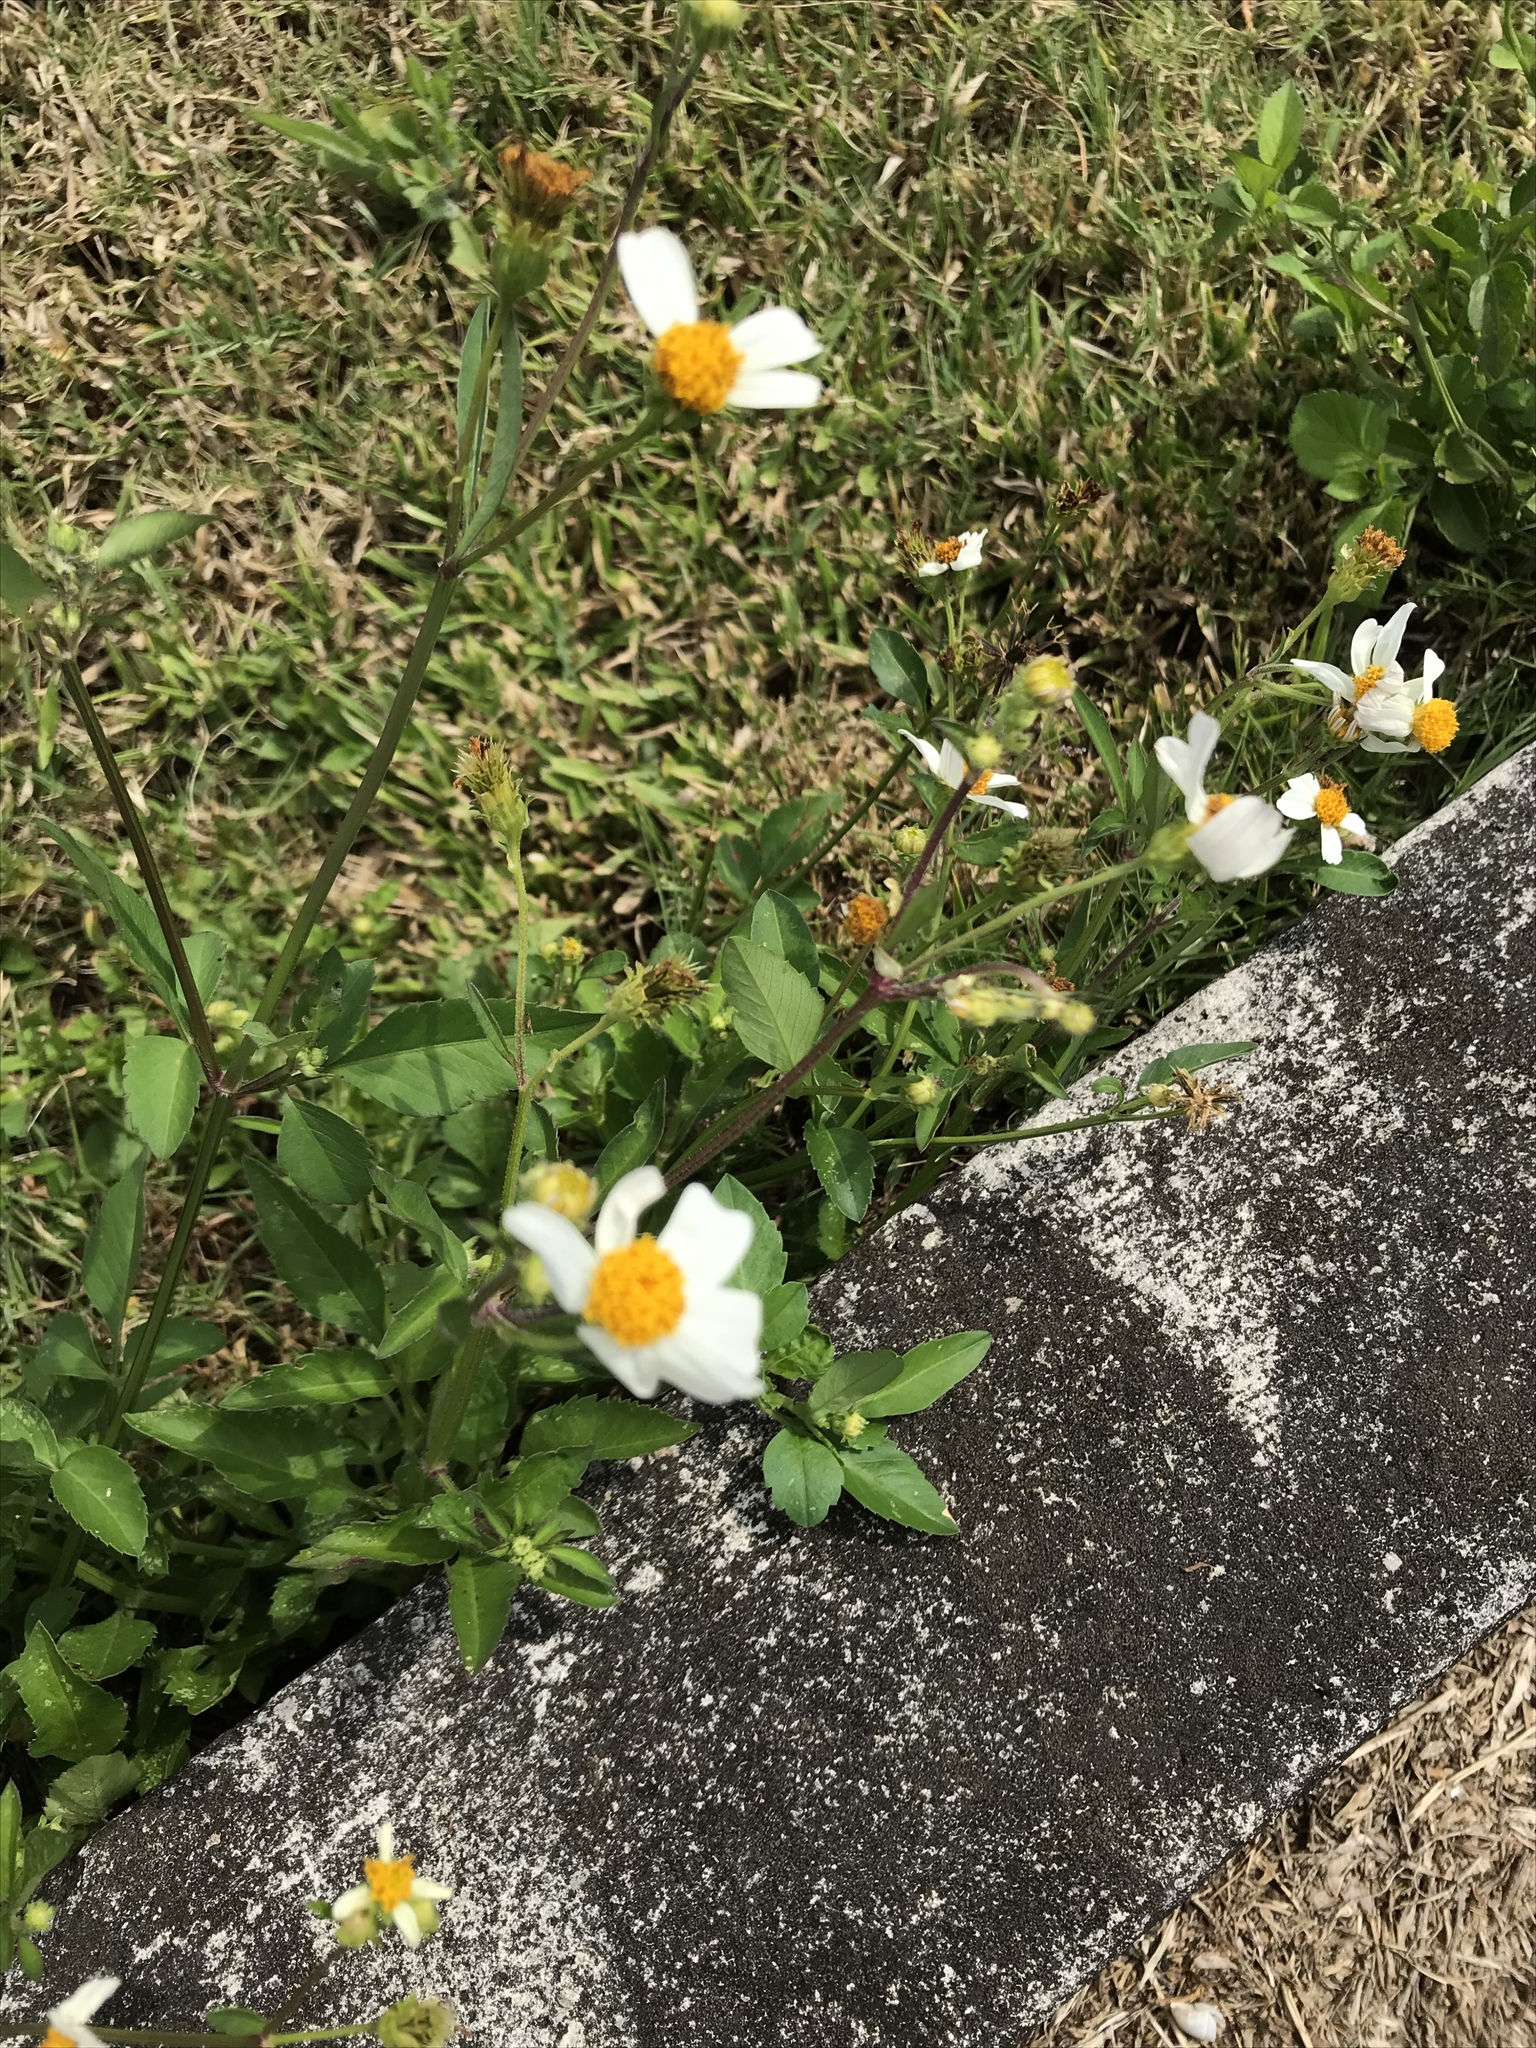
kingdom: Plantae
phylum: Tracheophyta
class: Magnoliopsida
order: Asterales
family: Asteraceae
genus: Bidens
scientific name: Bidens alba
